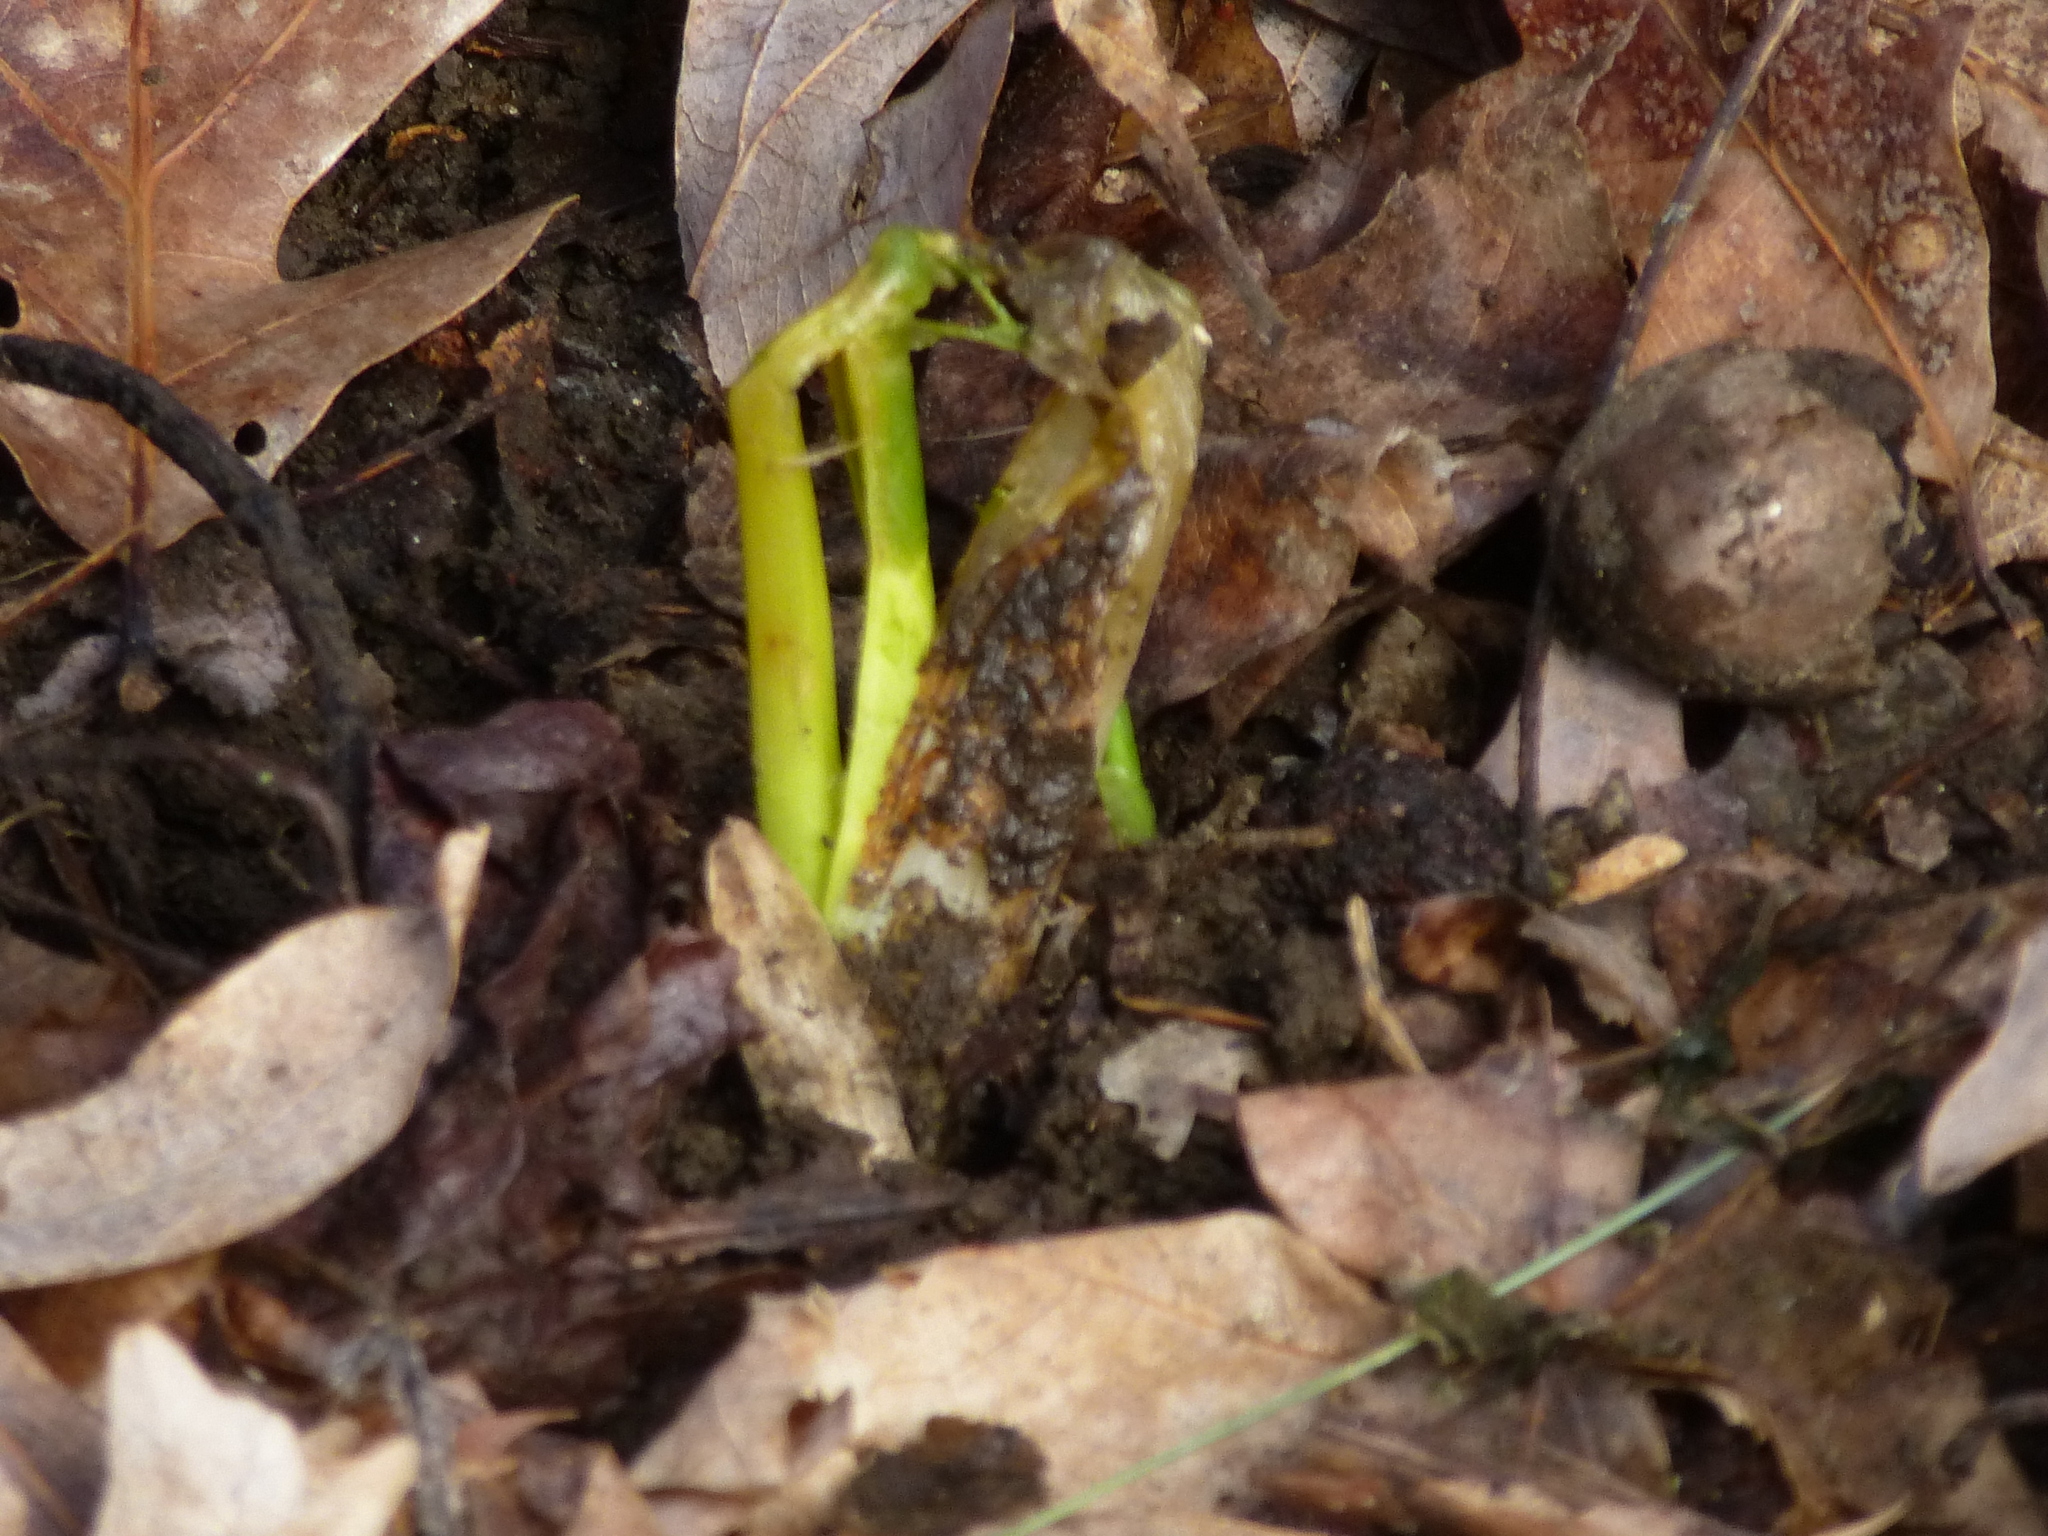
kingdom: Plantae
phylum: Tracheophyta
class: Liliopsida
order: Alismatales
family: Araceae
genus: Arum
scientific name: Arum italicum
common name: Italian lords-and-ladies
